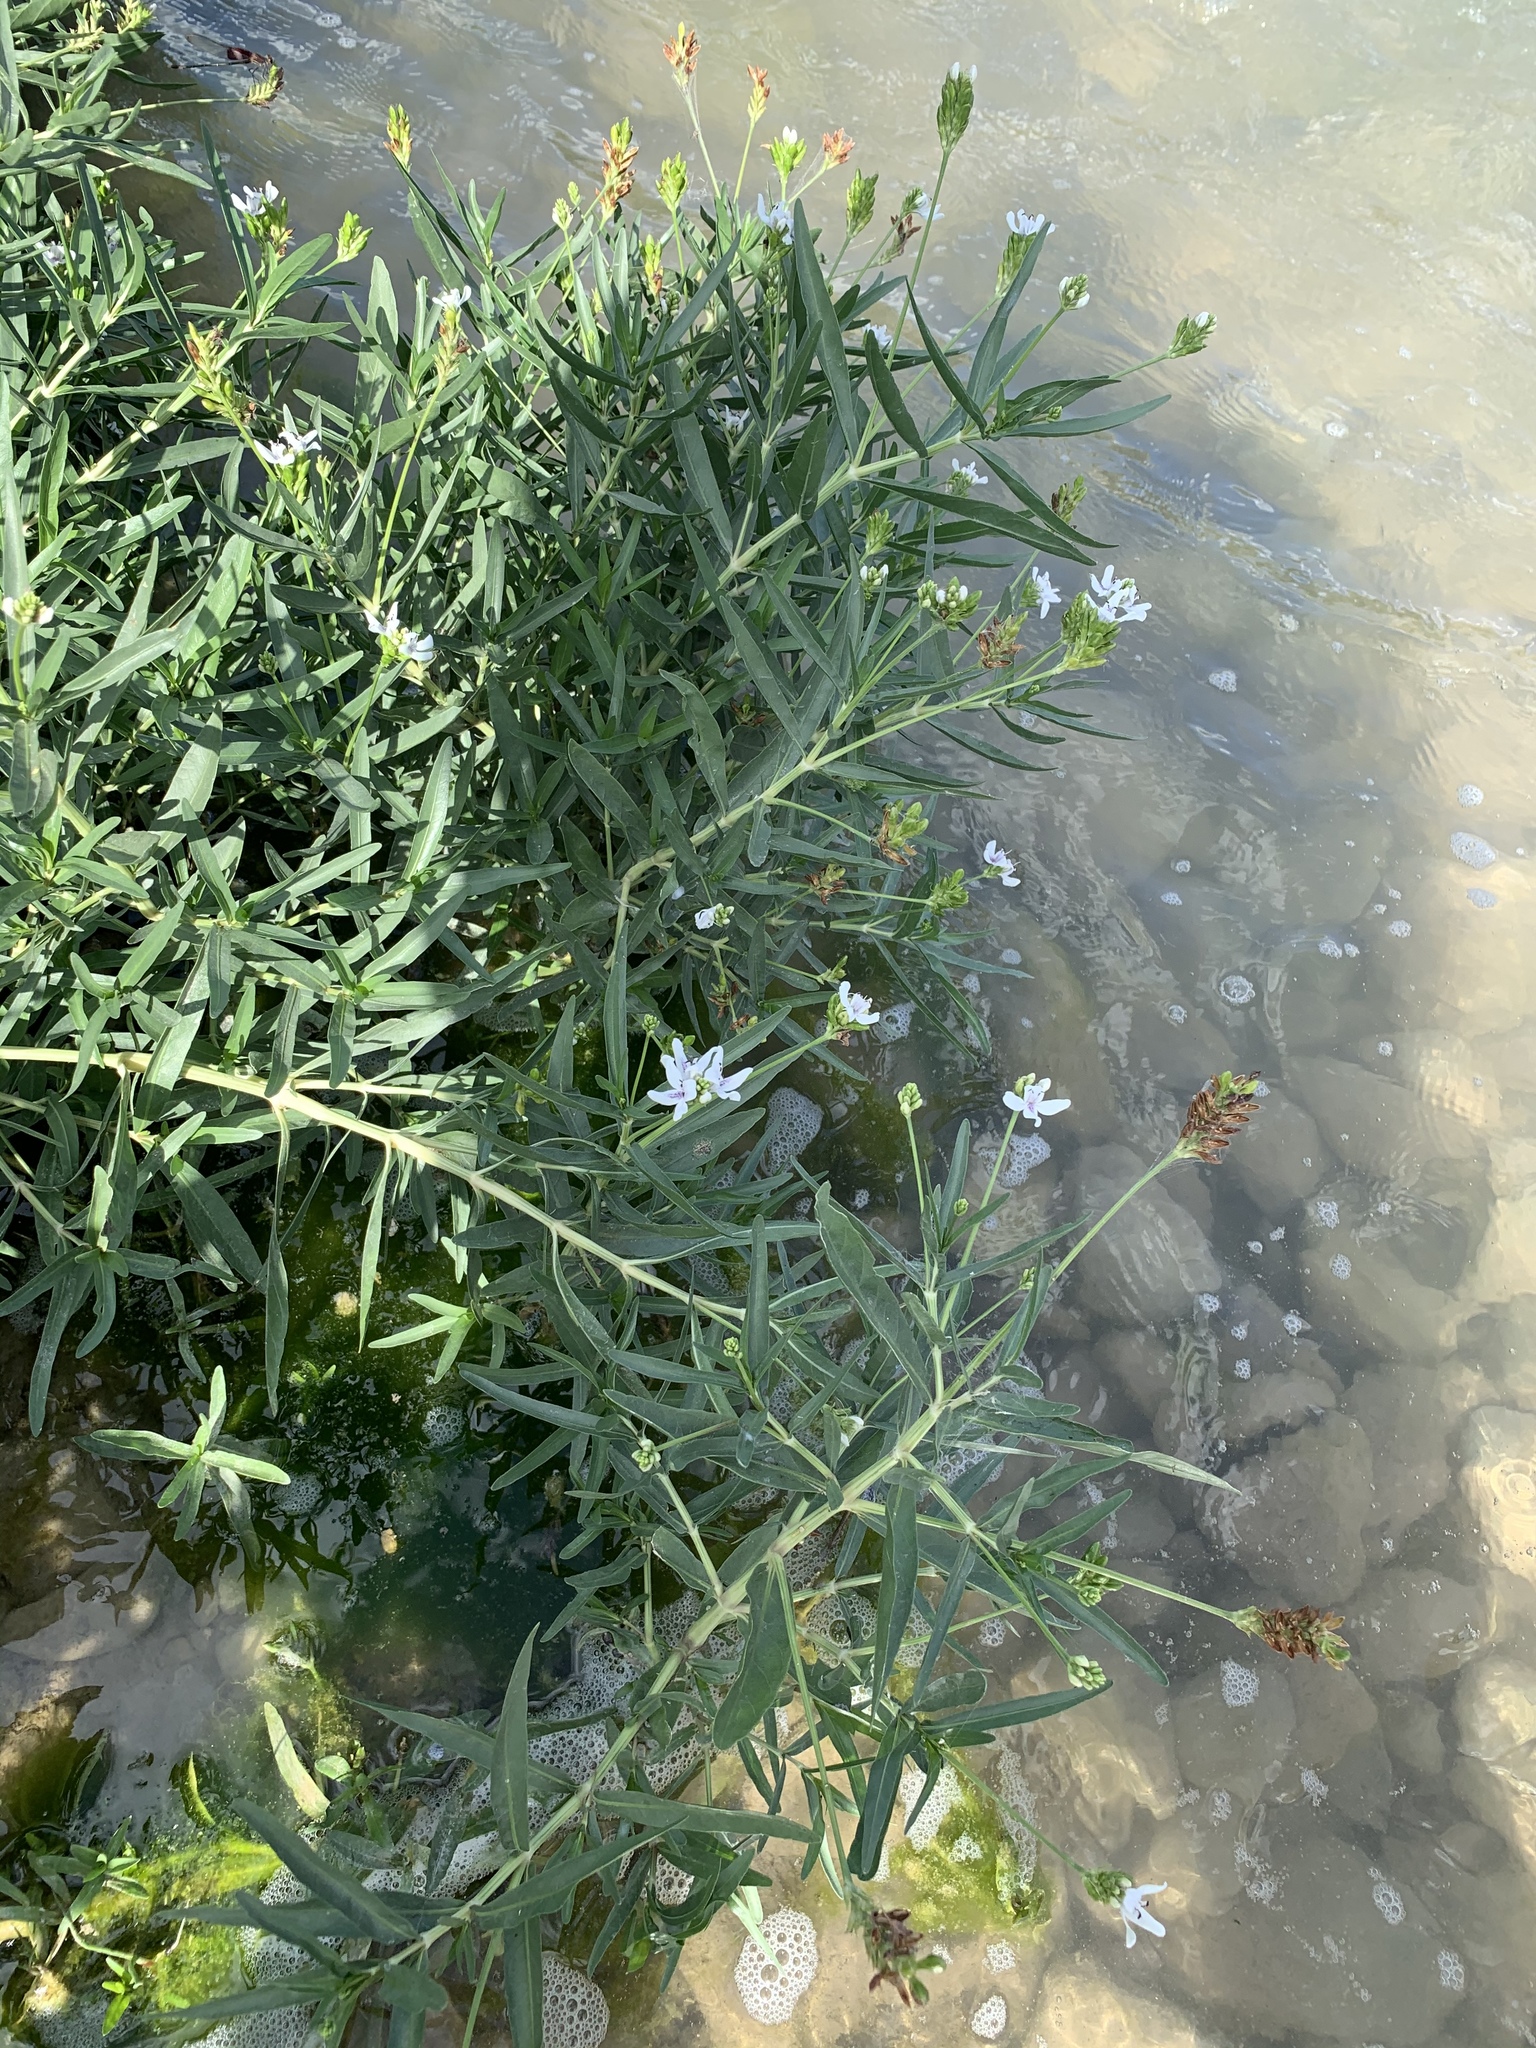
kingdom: Plantae
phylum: Tracheophyta
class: Magnoliopsida
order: Lamiales
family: Acanthaceae
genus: Dianthera
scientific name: Dianthera americana
